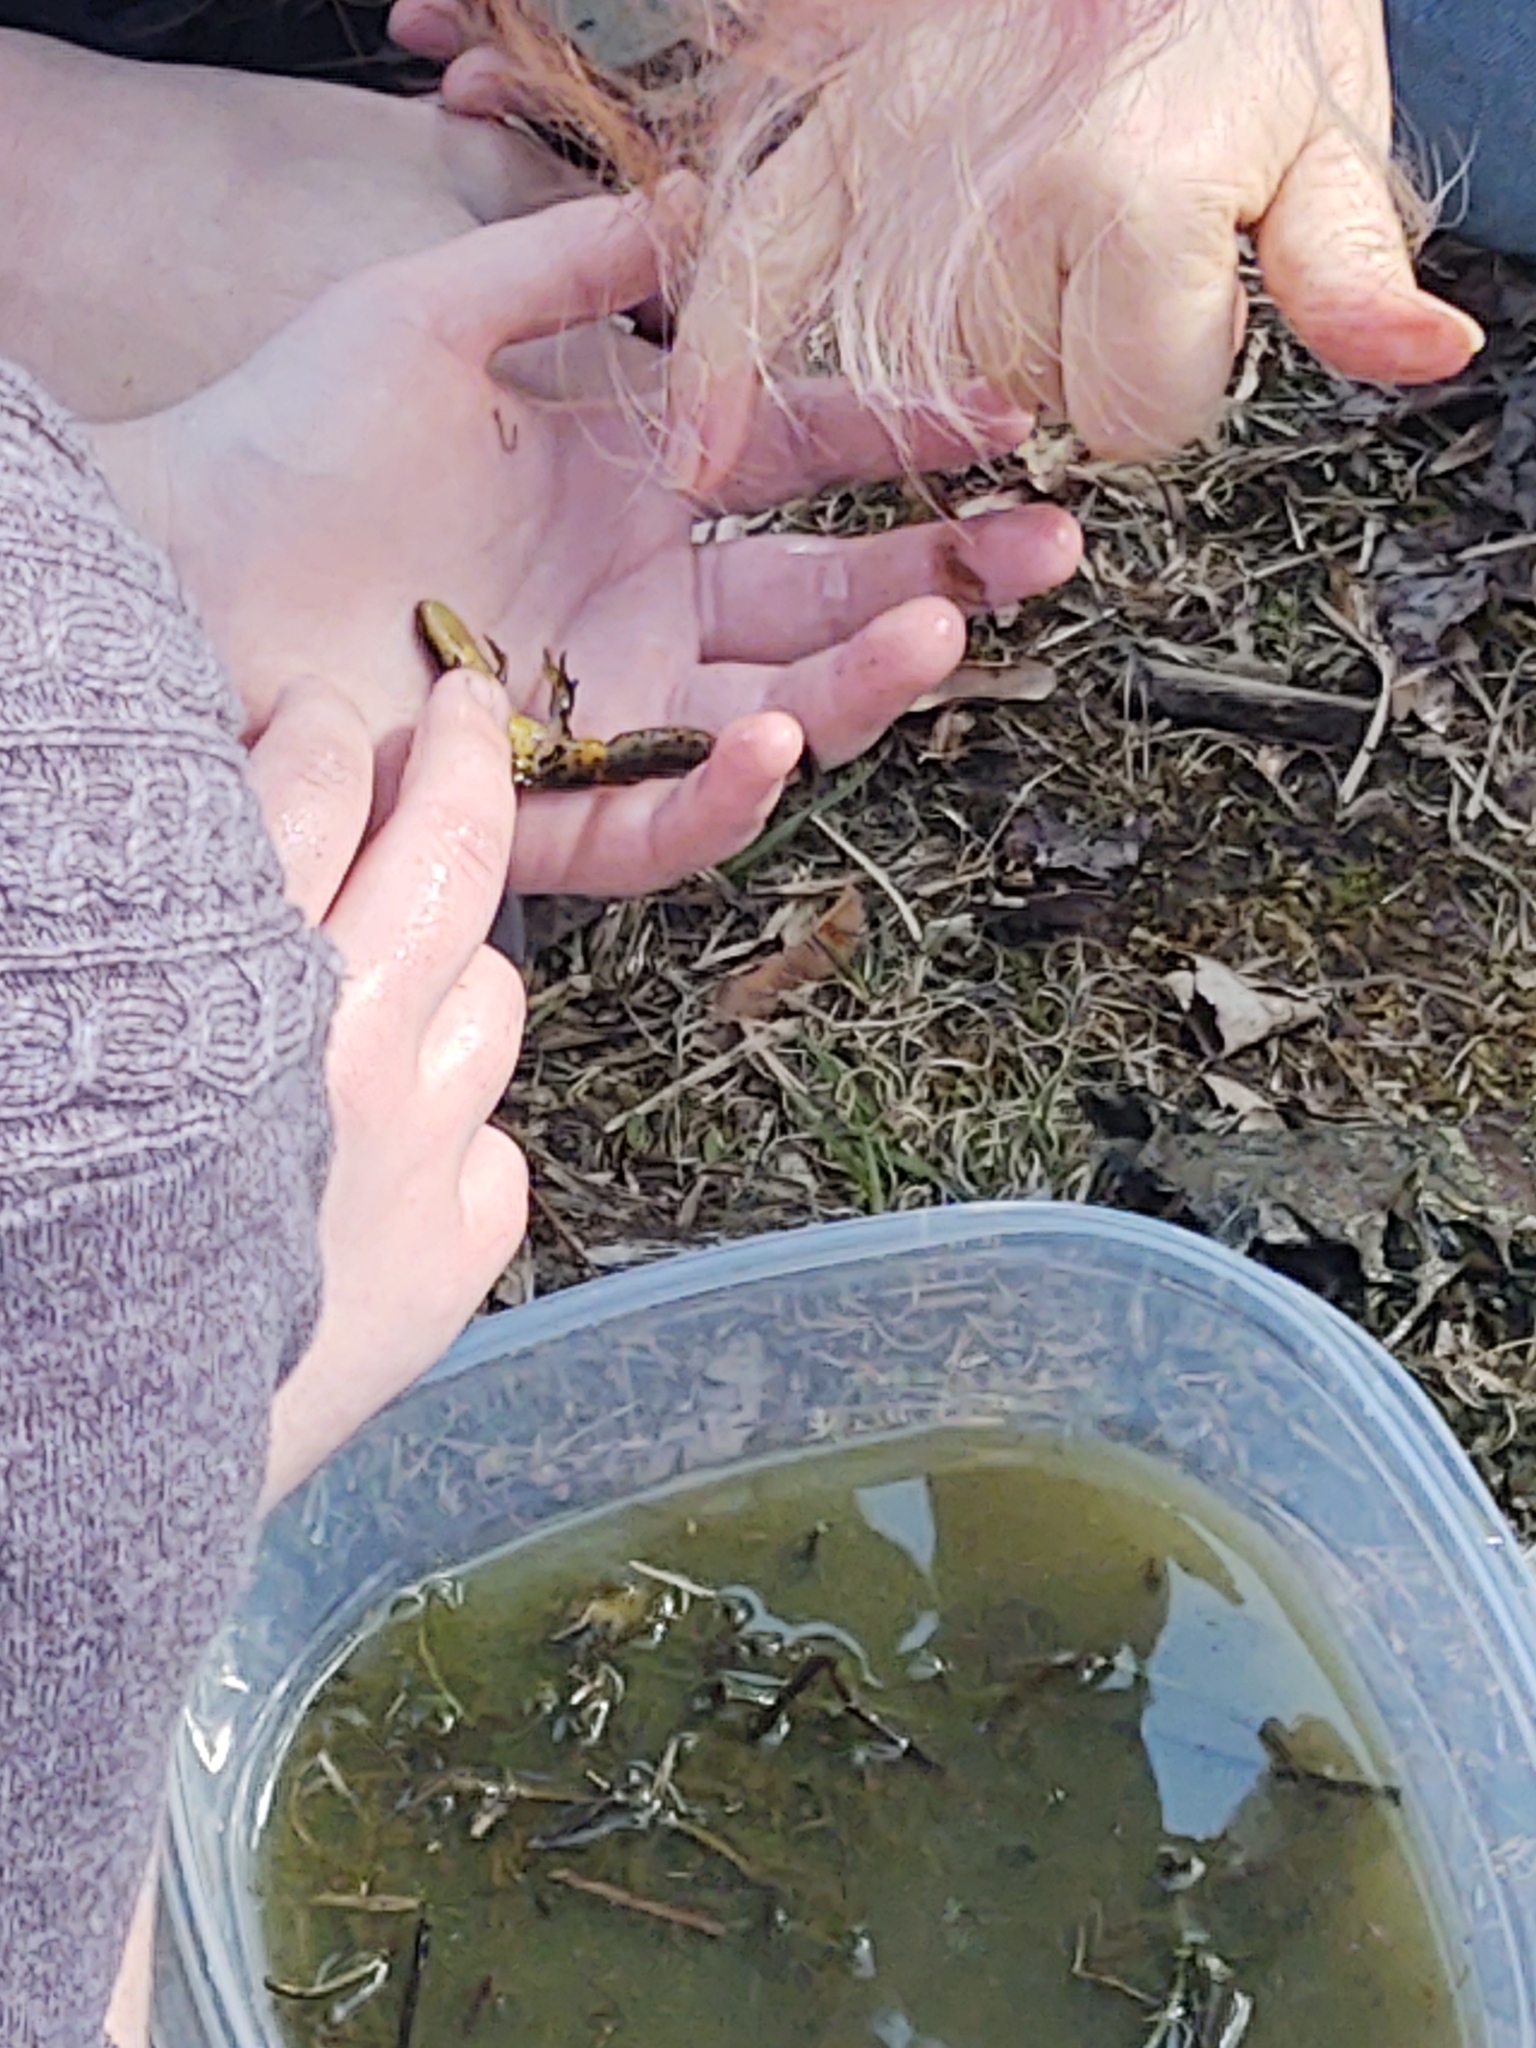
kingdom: Animalia
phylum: Chordata
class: Amphibia
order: Caudata
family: Salamandridae
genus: Notophthalmus
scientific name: Notophthalmus viridescens
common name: Eastern newt
